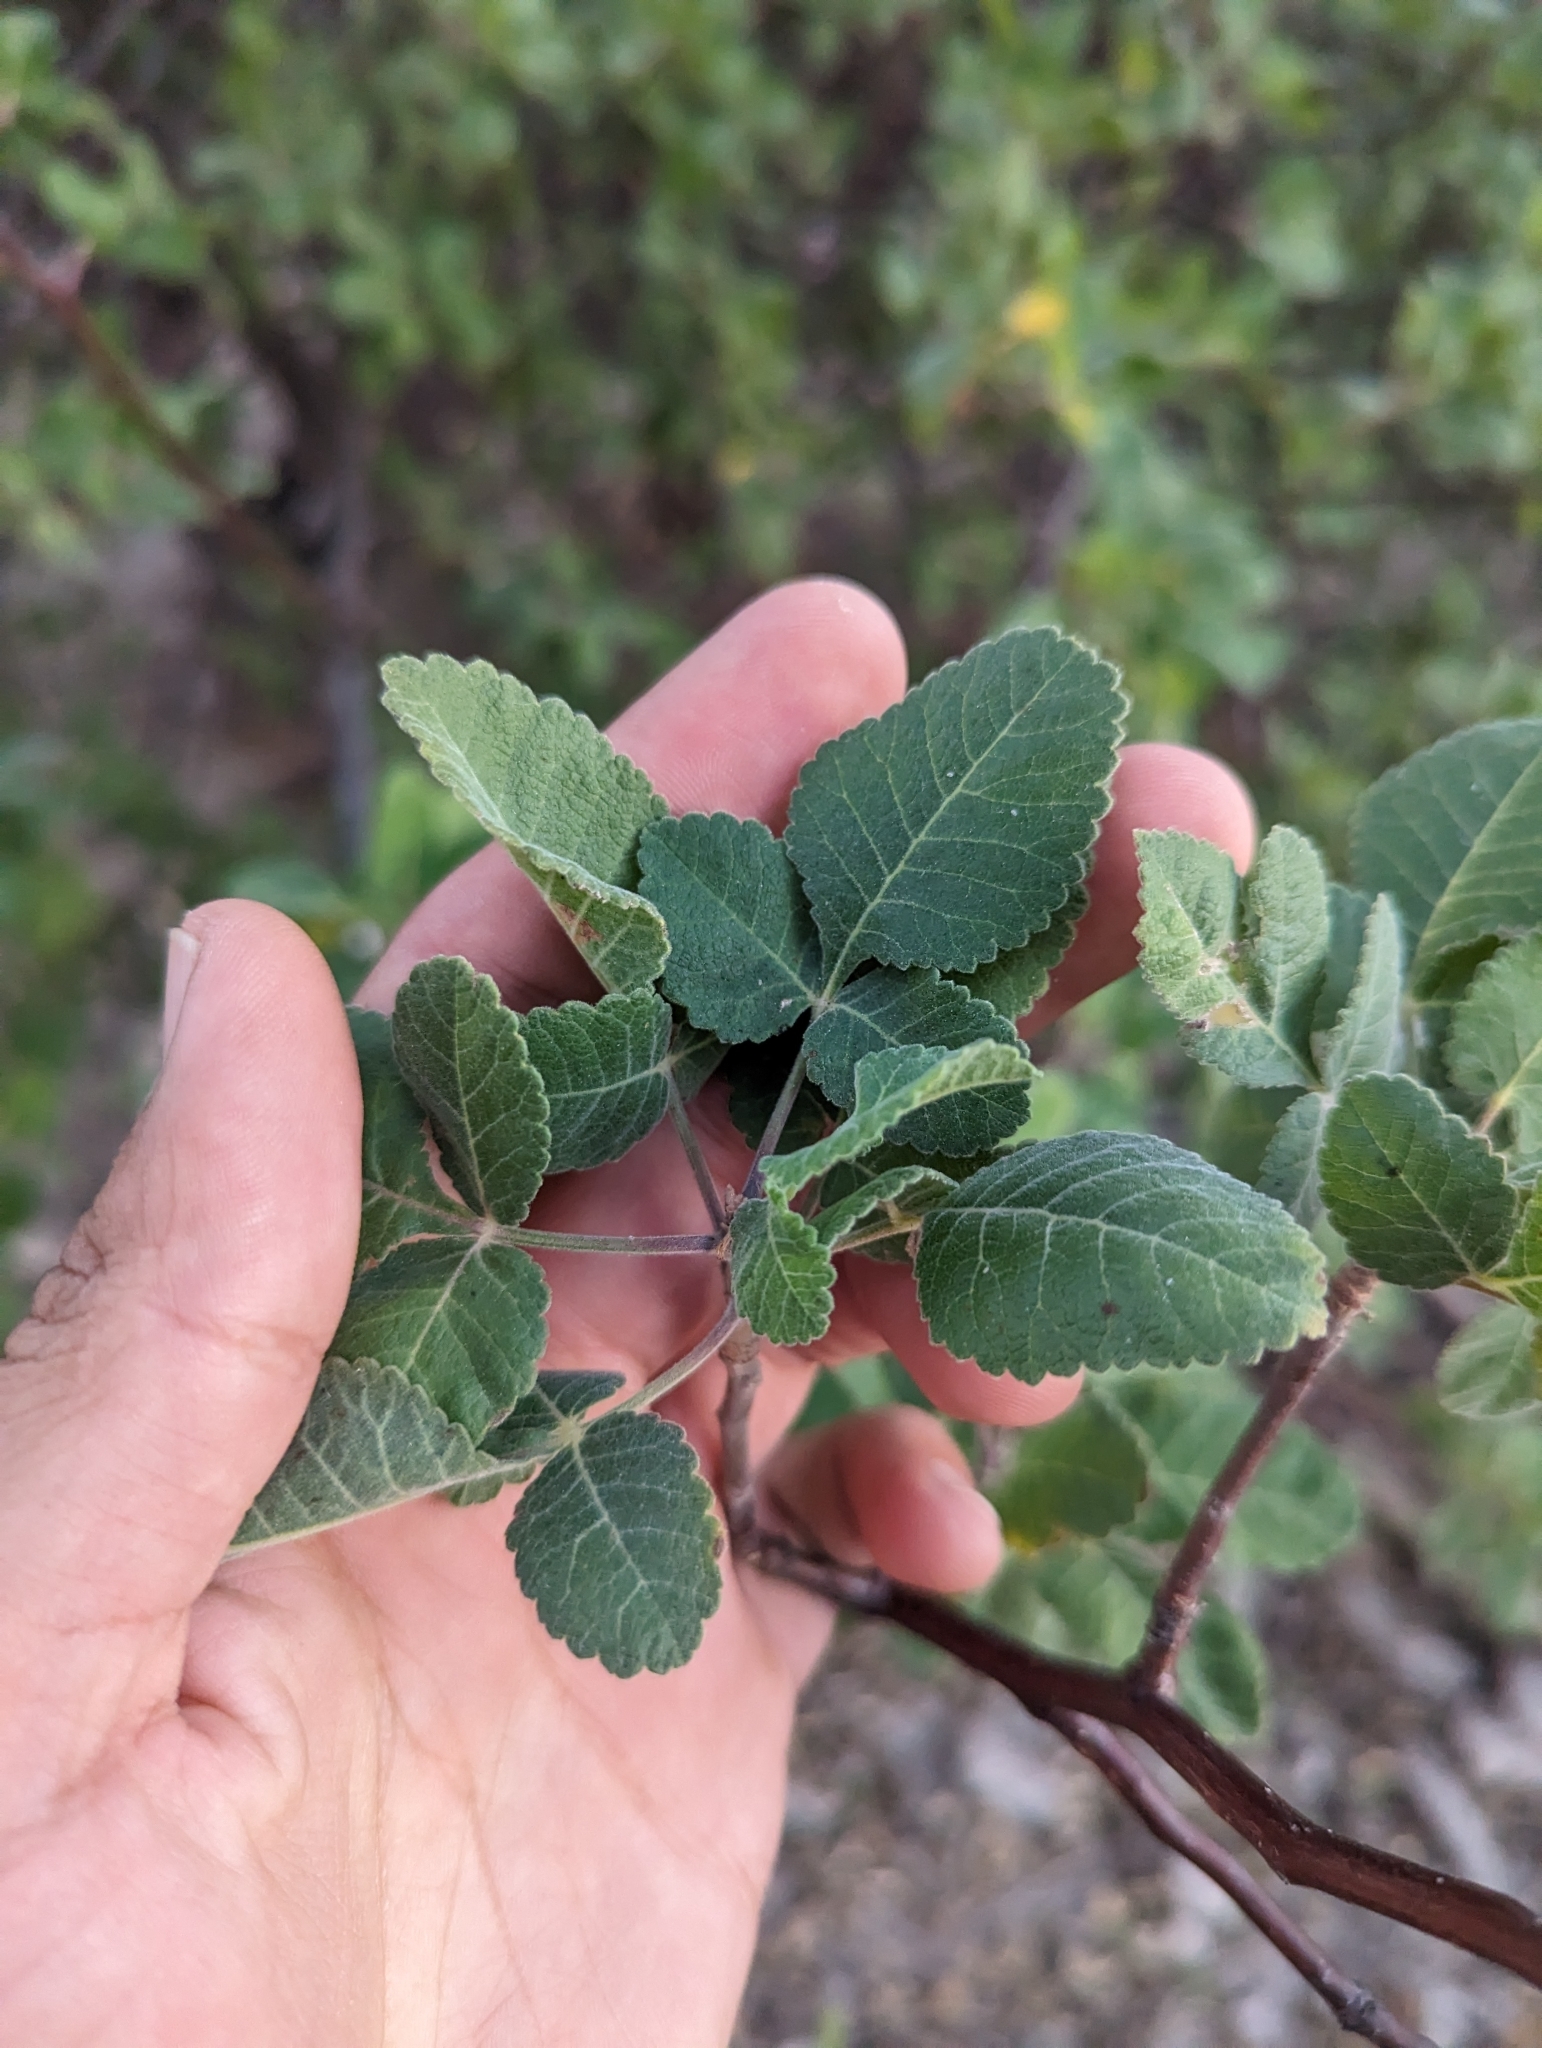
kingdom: Plantae
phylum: Tracheophyta
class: Magnoliopsida
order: Sapindales
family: Burseraceae
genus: Bursera
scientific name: Bursera hindsiana
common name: Red elephant tree
